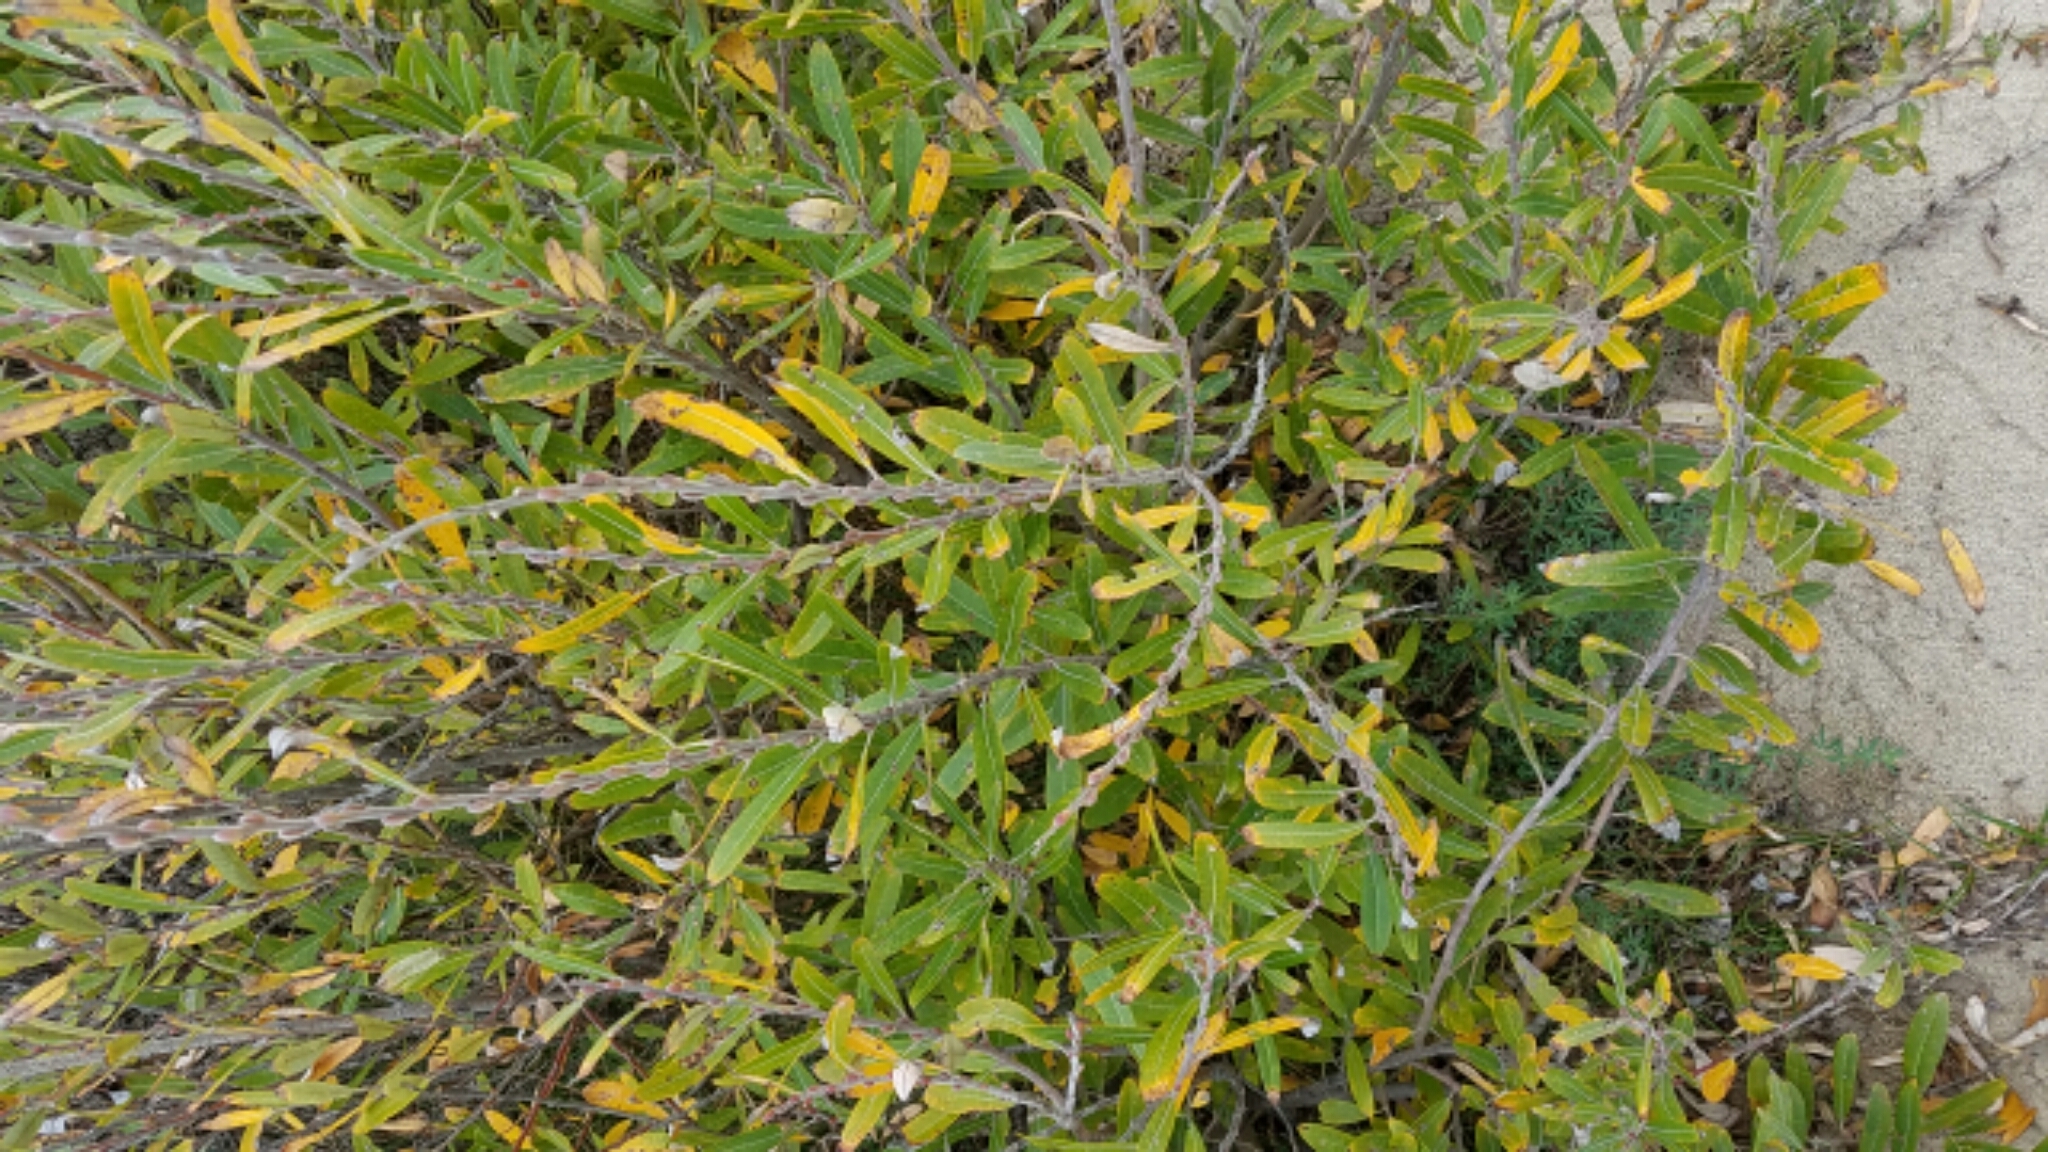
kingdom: Plantae
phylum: Tracheophyta
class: Magnoliopsida
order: Malpighiales
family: Salicaceae
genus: Salix
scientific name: Salix lasiolepis
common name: Arroyo willow
